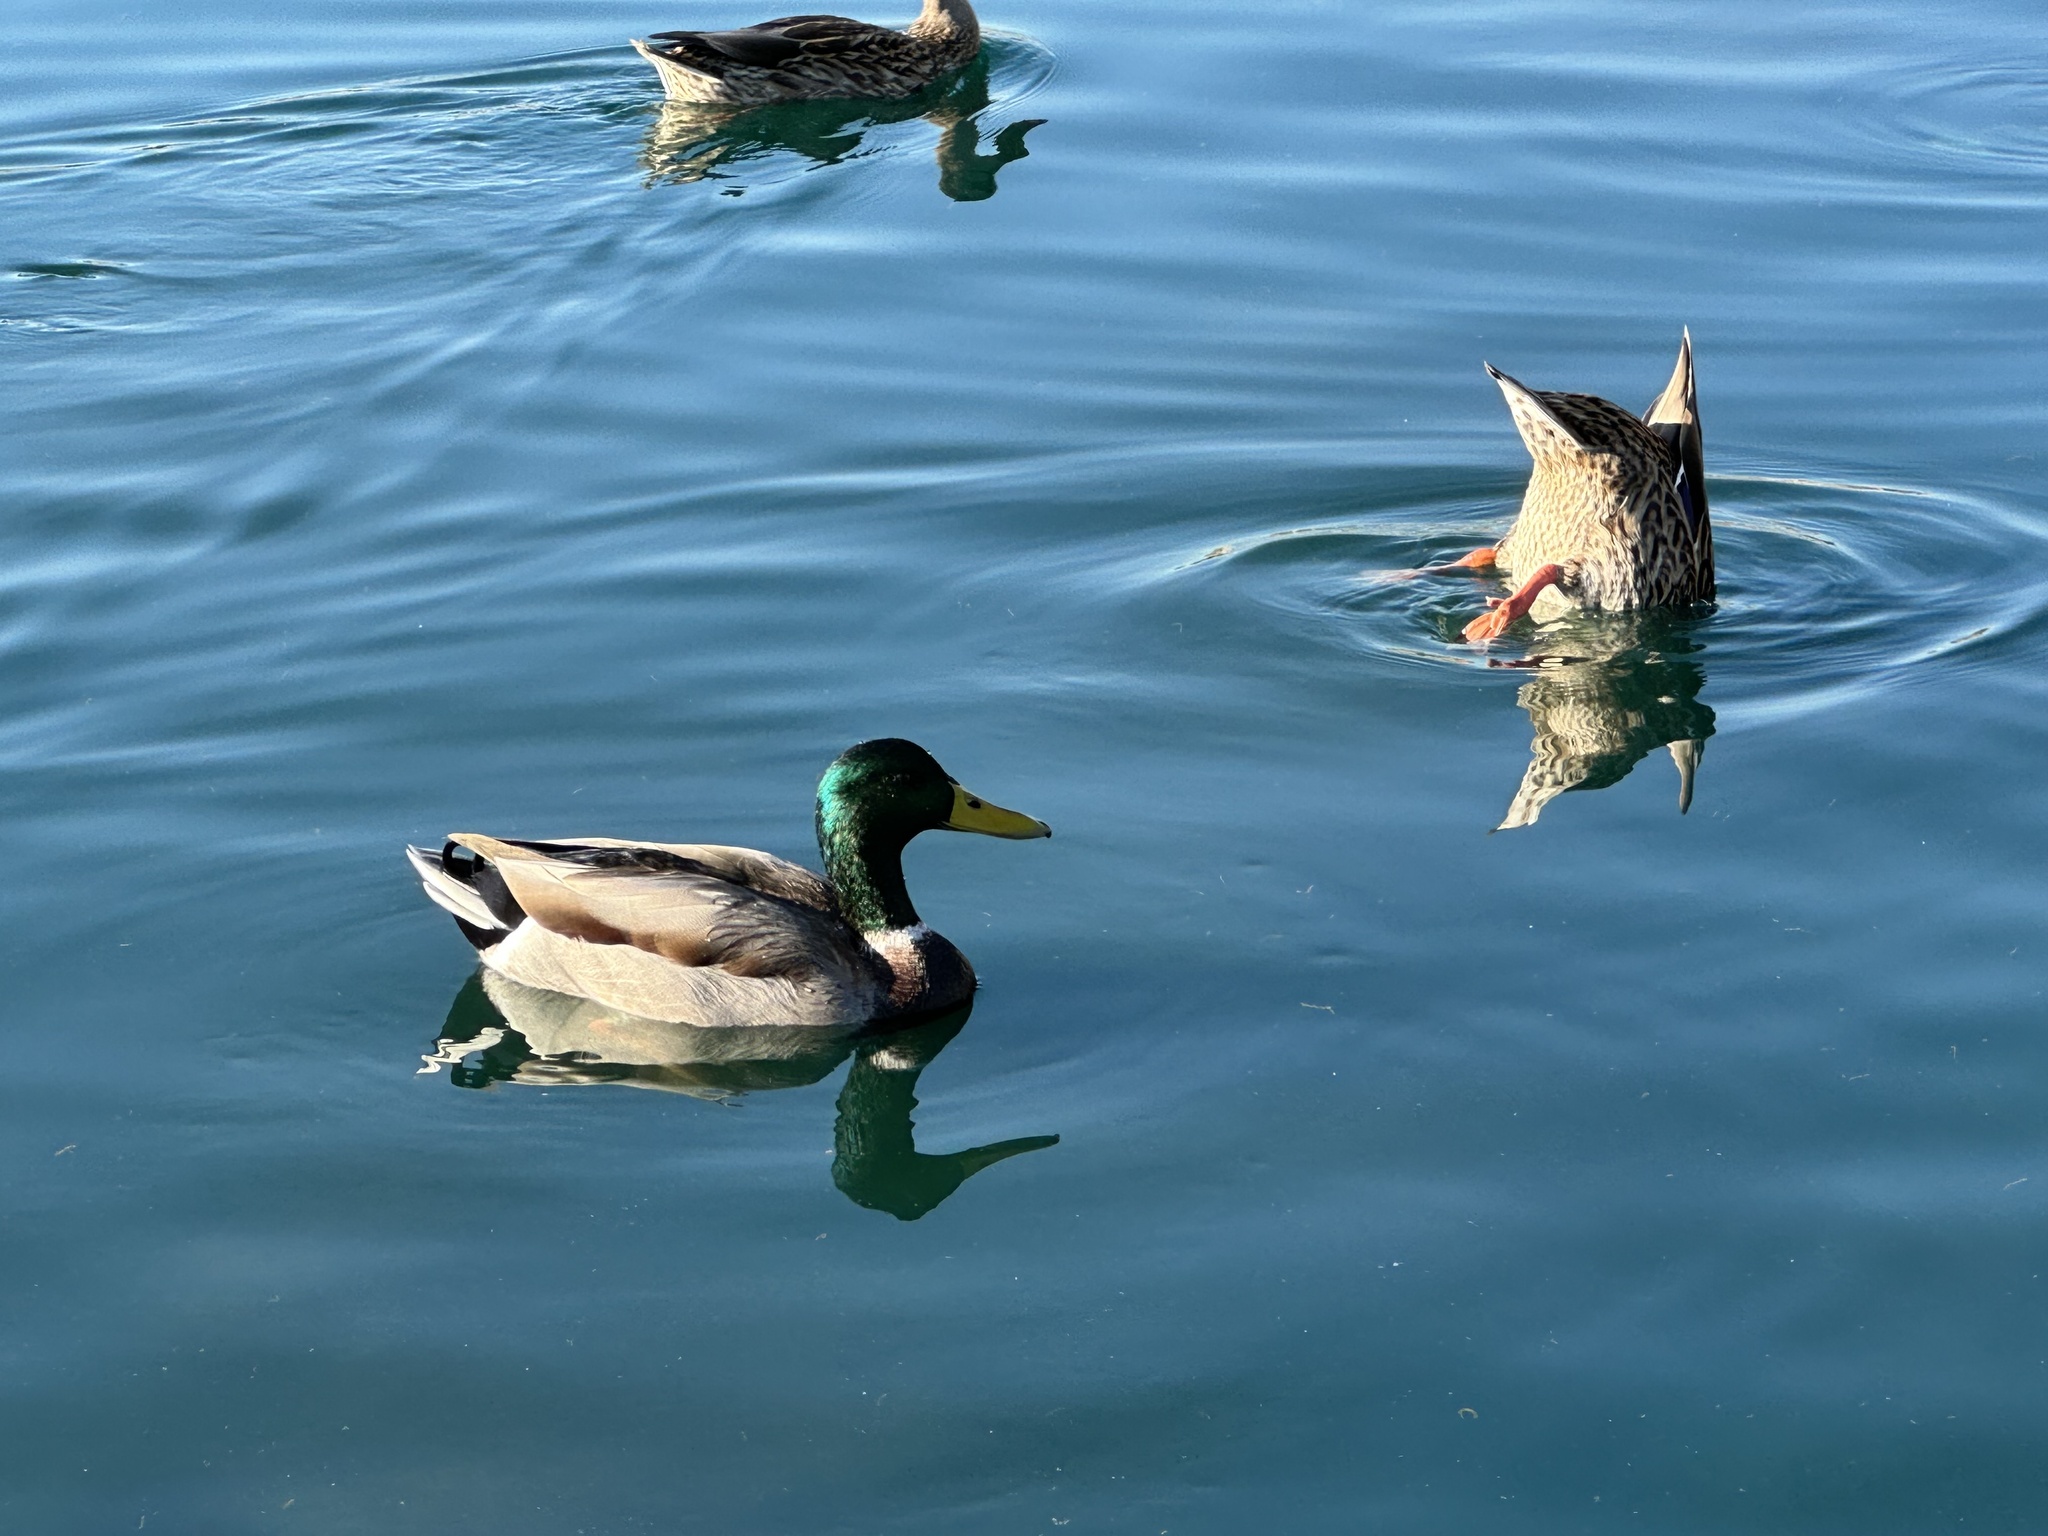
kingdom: Animalia
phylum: Chordata
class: Aves
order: Anseriformes
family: Anatidae
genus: Anas
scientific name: Anas platyrhynchos
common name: Mallard
